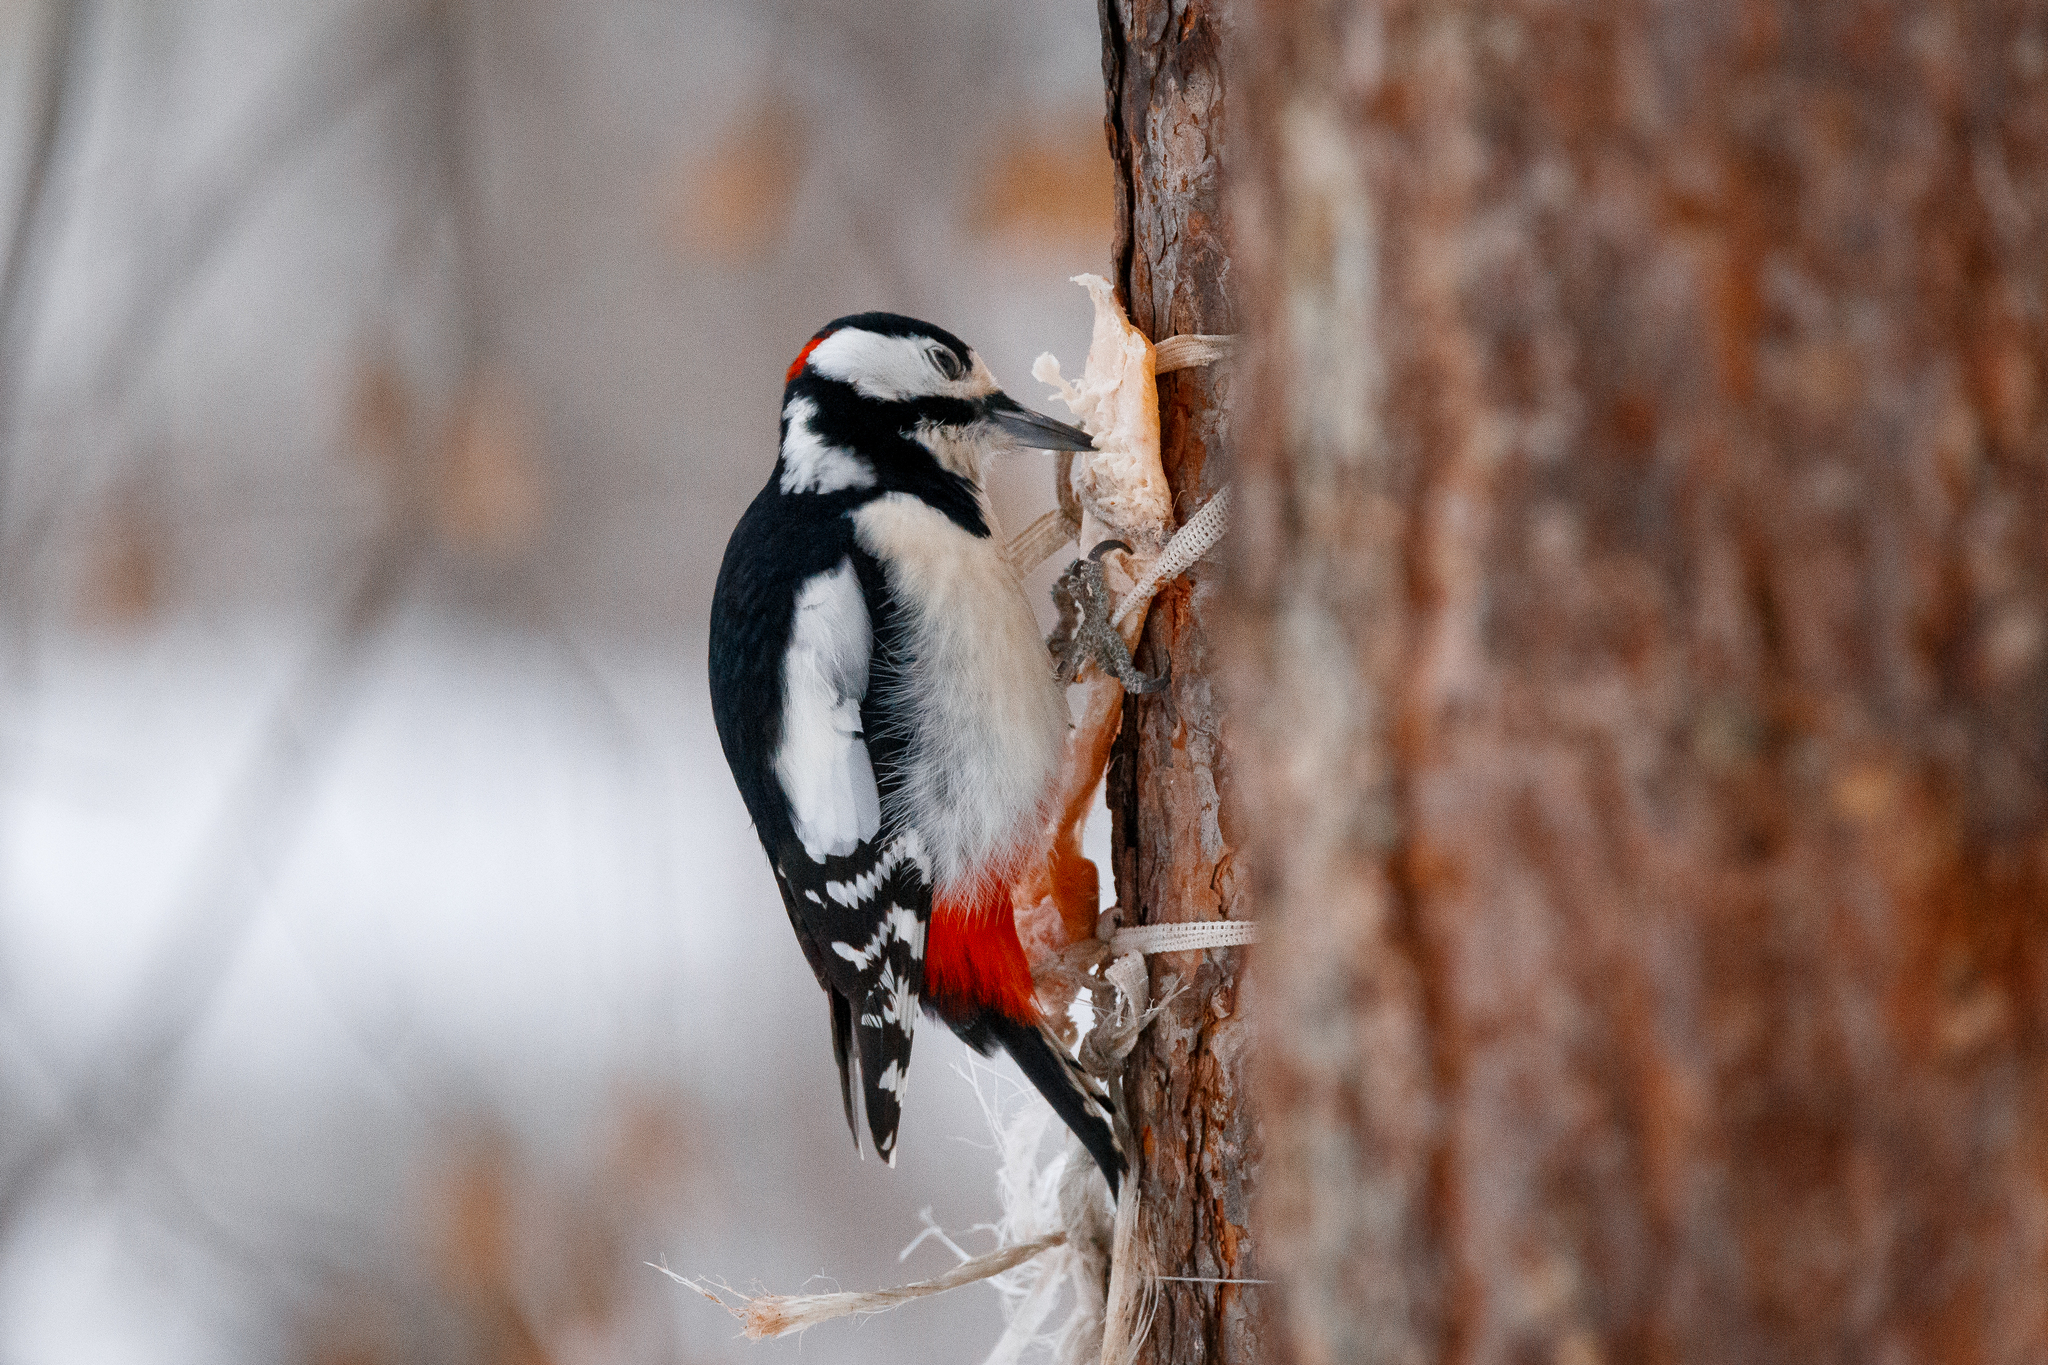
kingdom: Animalia
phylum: Chordata
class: Aves
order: Piciformes
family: Picidae
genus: Dendrocopos
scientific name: Dendrocopos major
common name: Great spotted woodpecker
